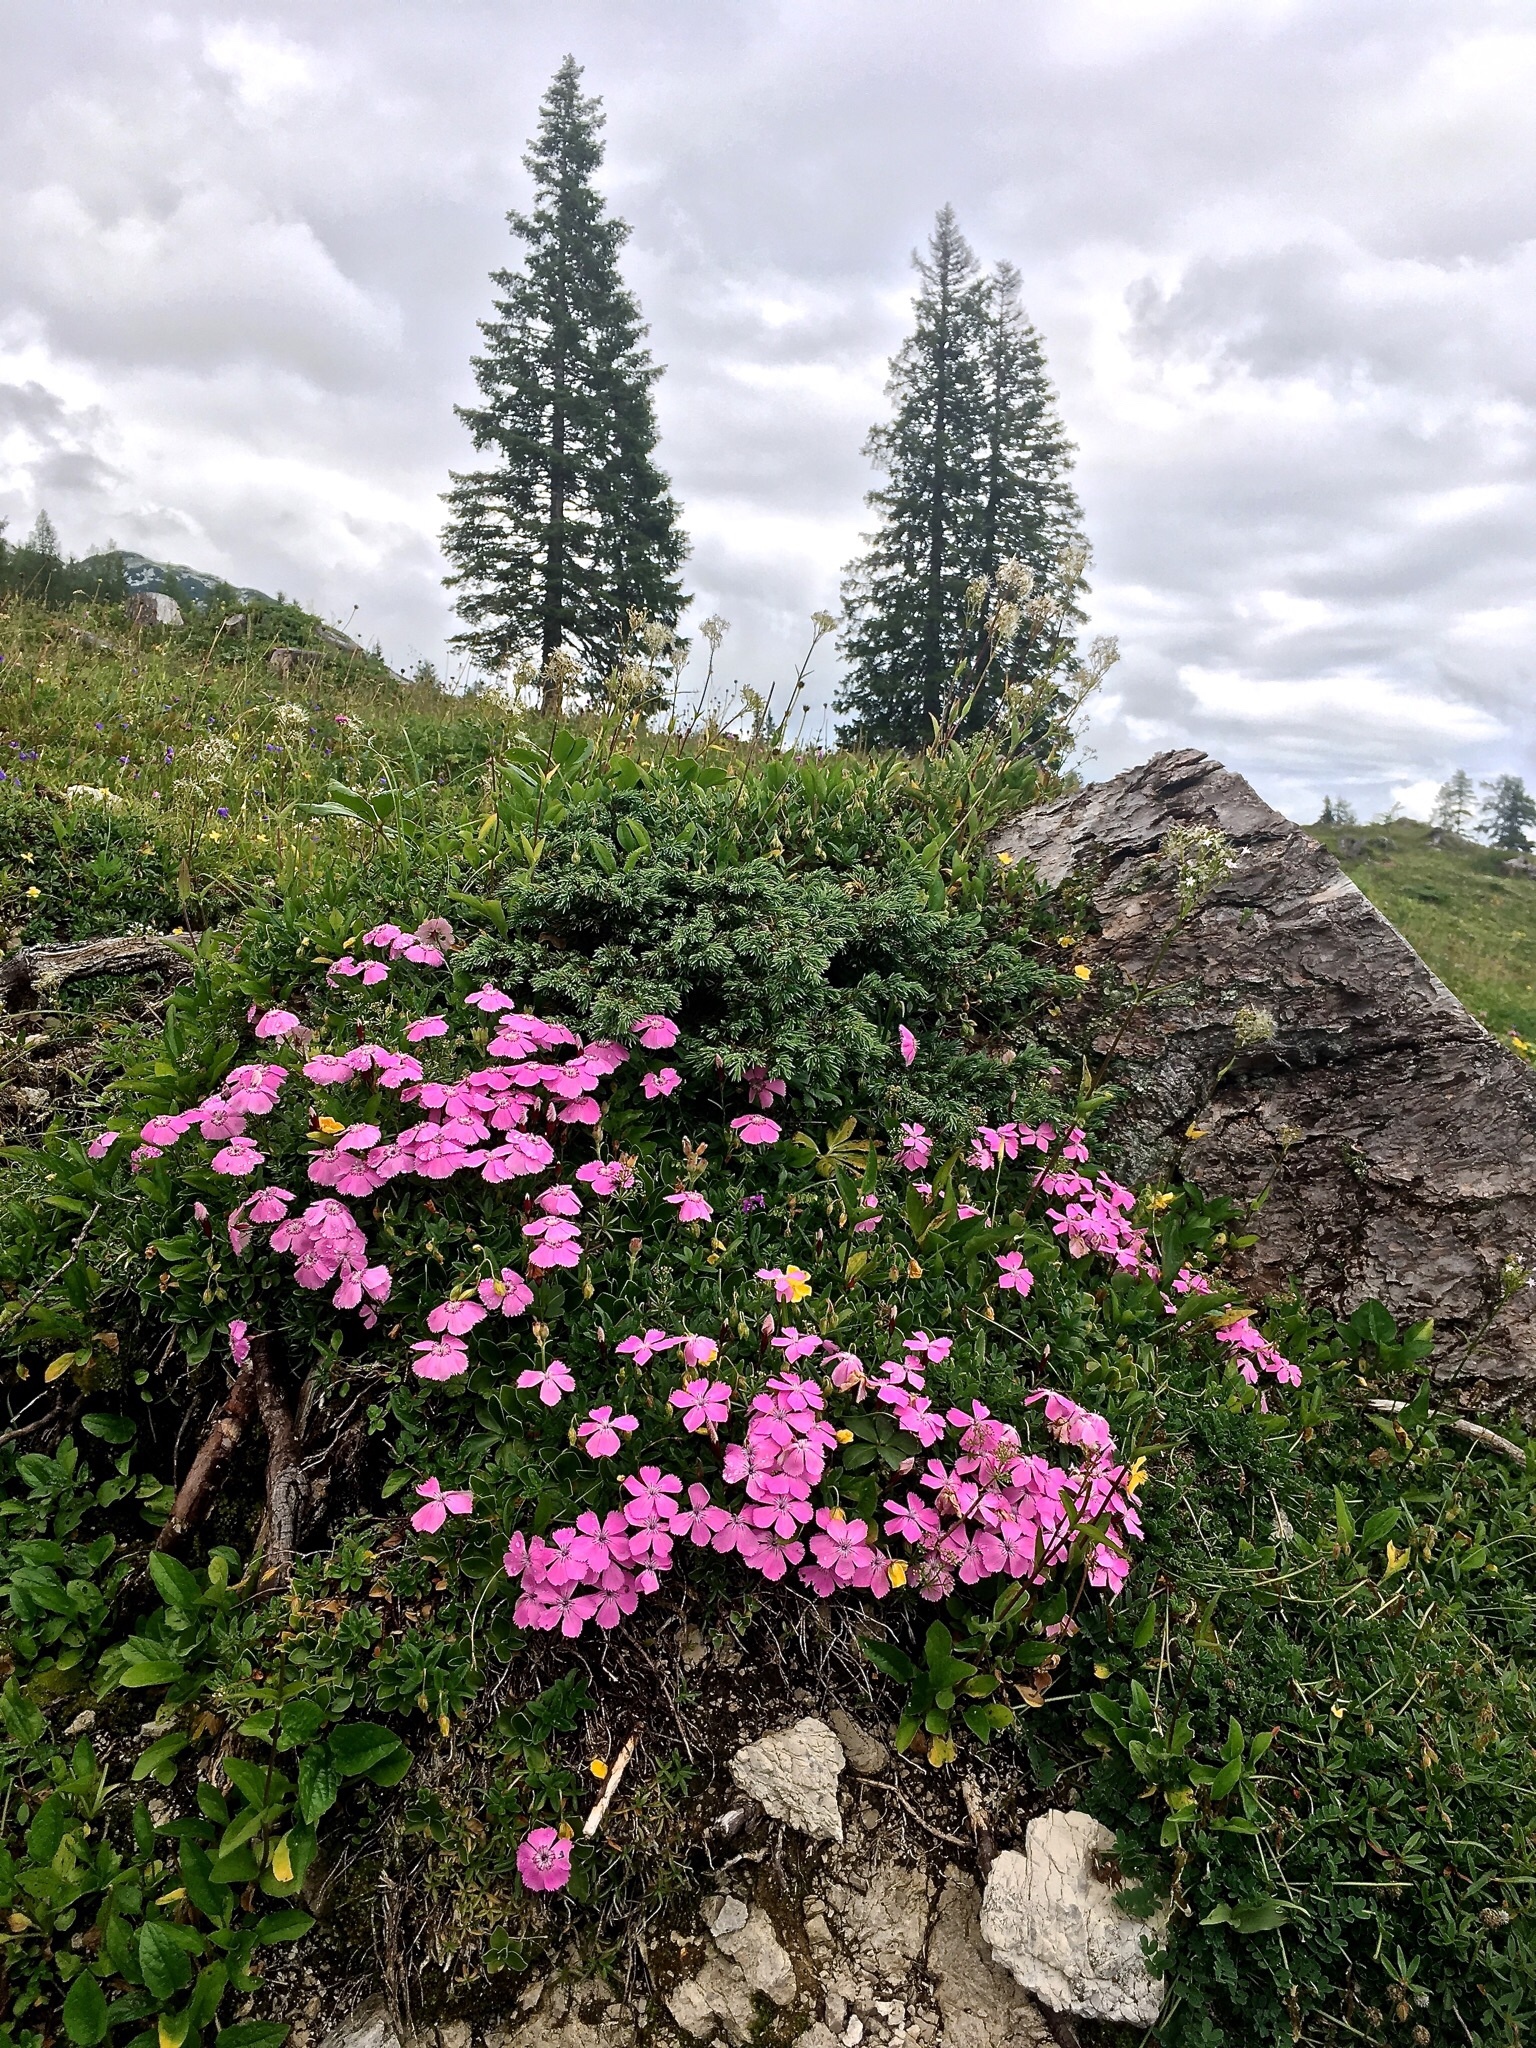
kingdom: Plantae
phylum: Tracheophyta
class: Magnoliopsida
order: Caryophyllales
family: Caryophyllaceae
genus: Dianthus
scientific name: Dianthus alpinus
